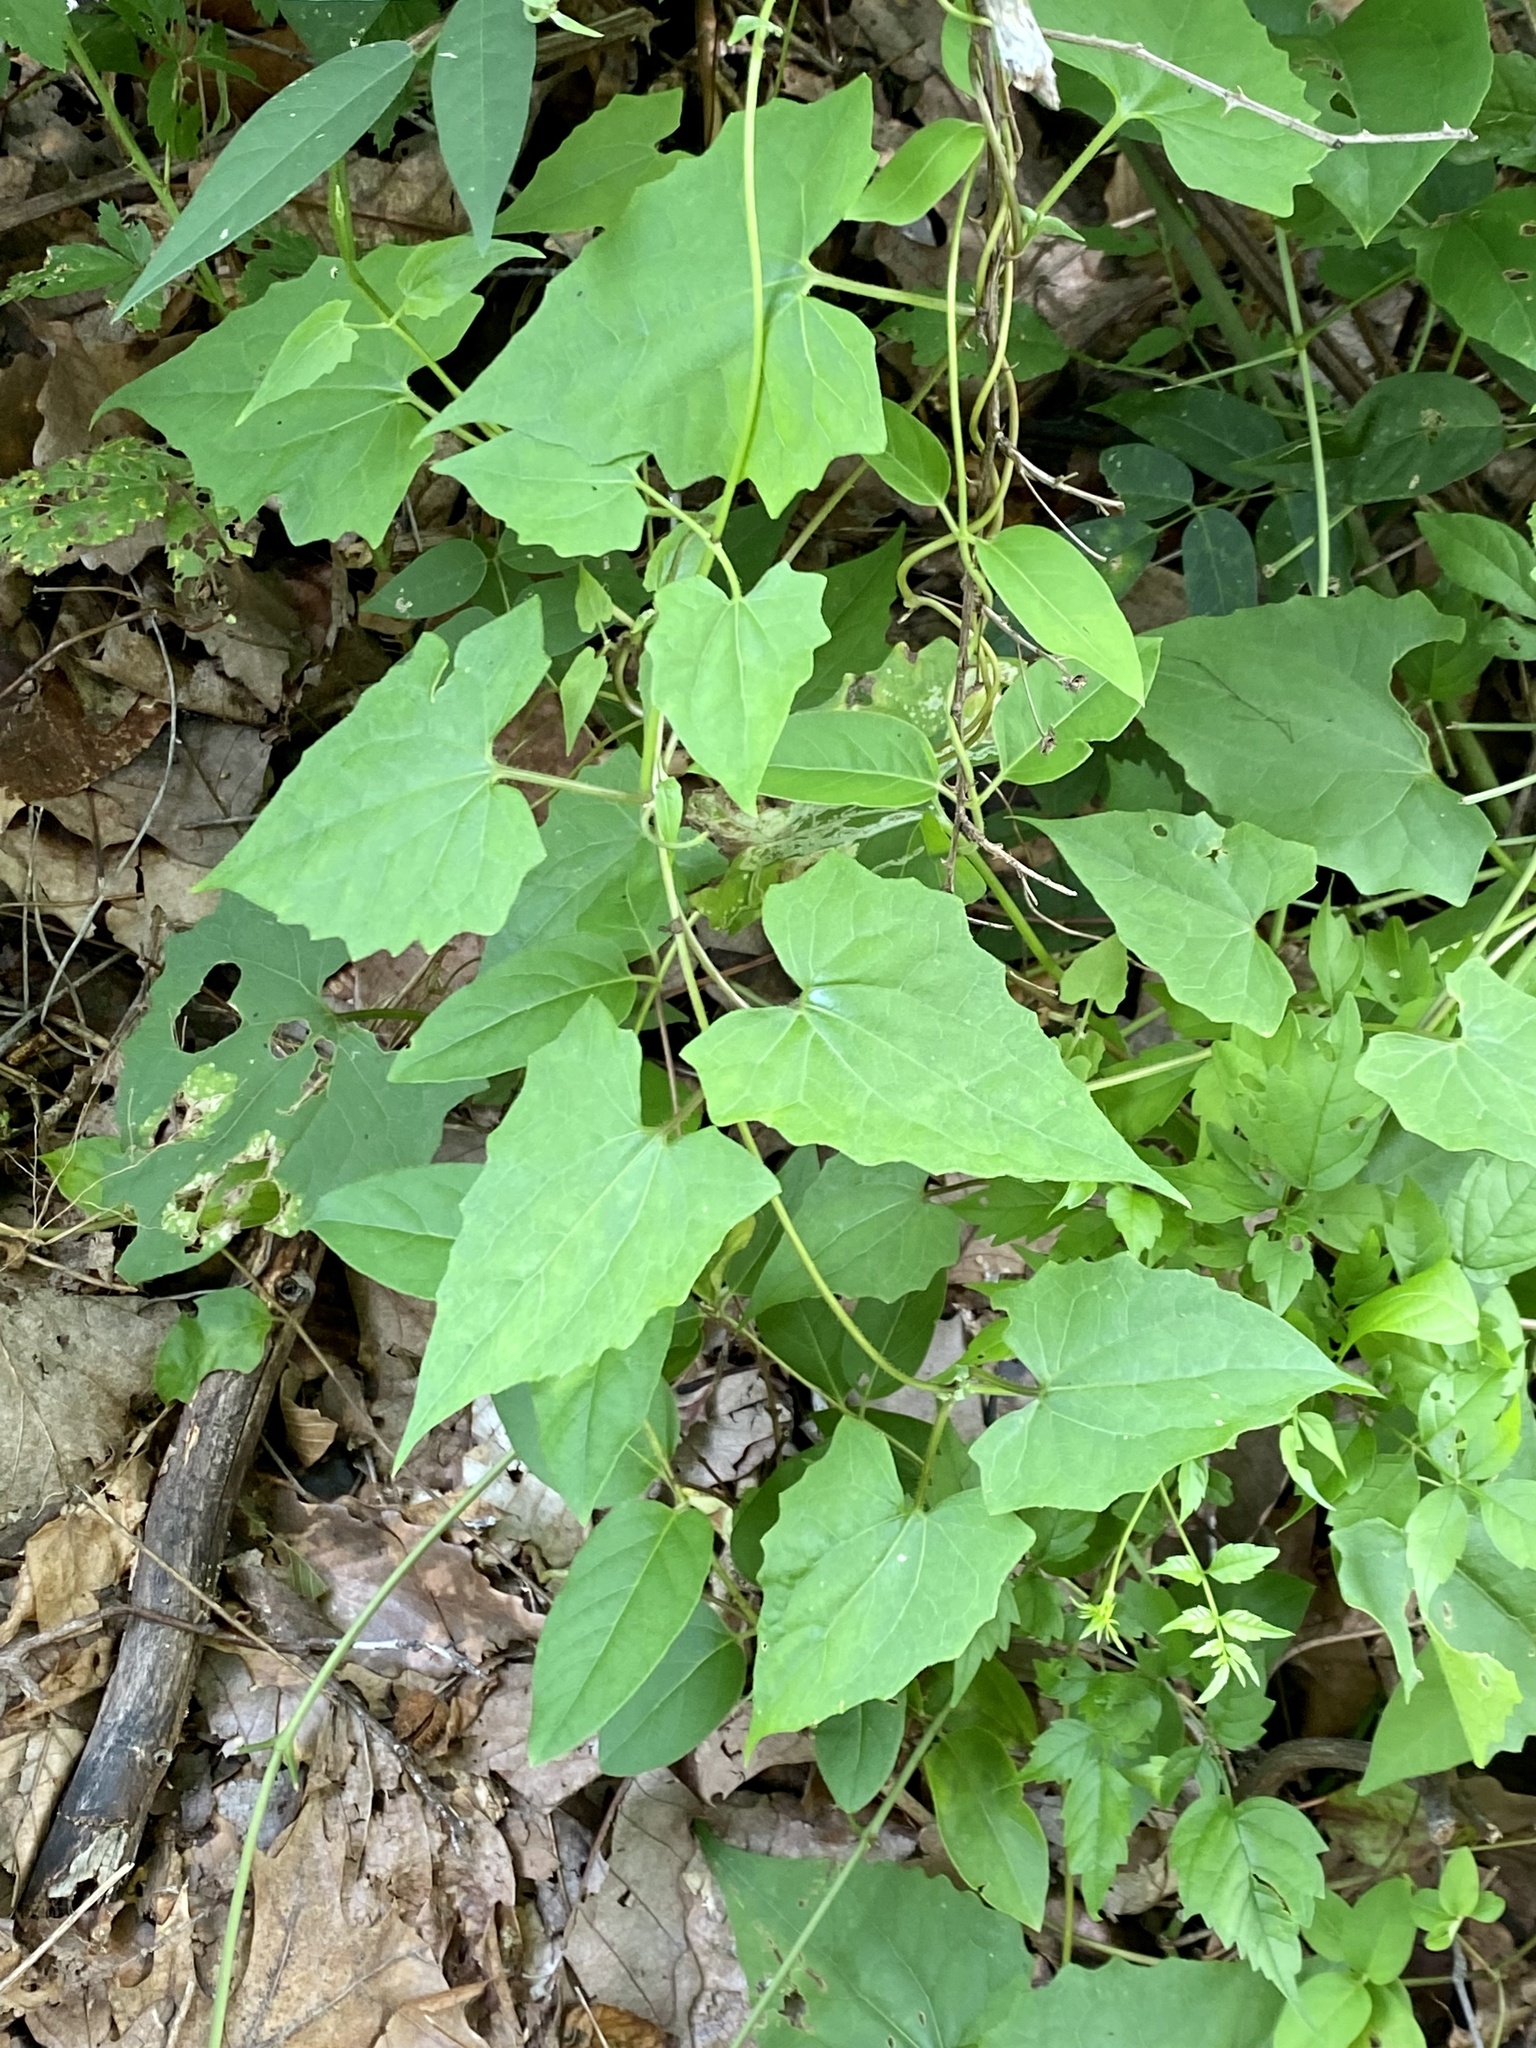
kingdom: Plantae
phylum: Tracheophyta
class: Magnoliopsida
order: Asterales
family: Asteraceae
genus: Mikania
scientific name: Mikania scandens
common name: Climbing hempvine
